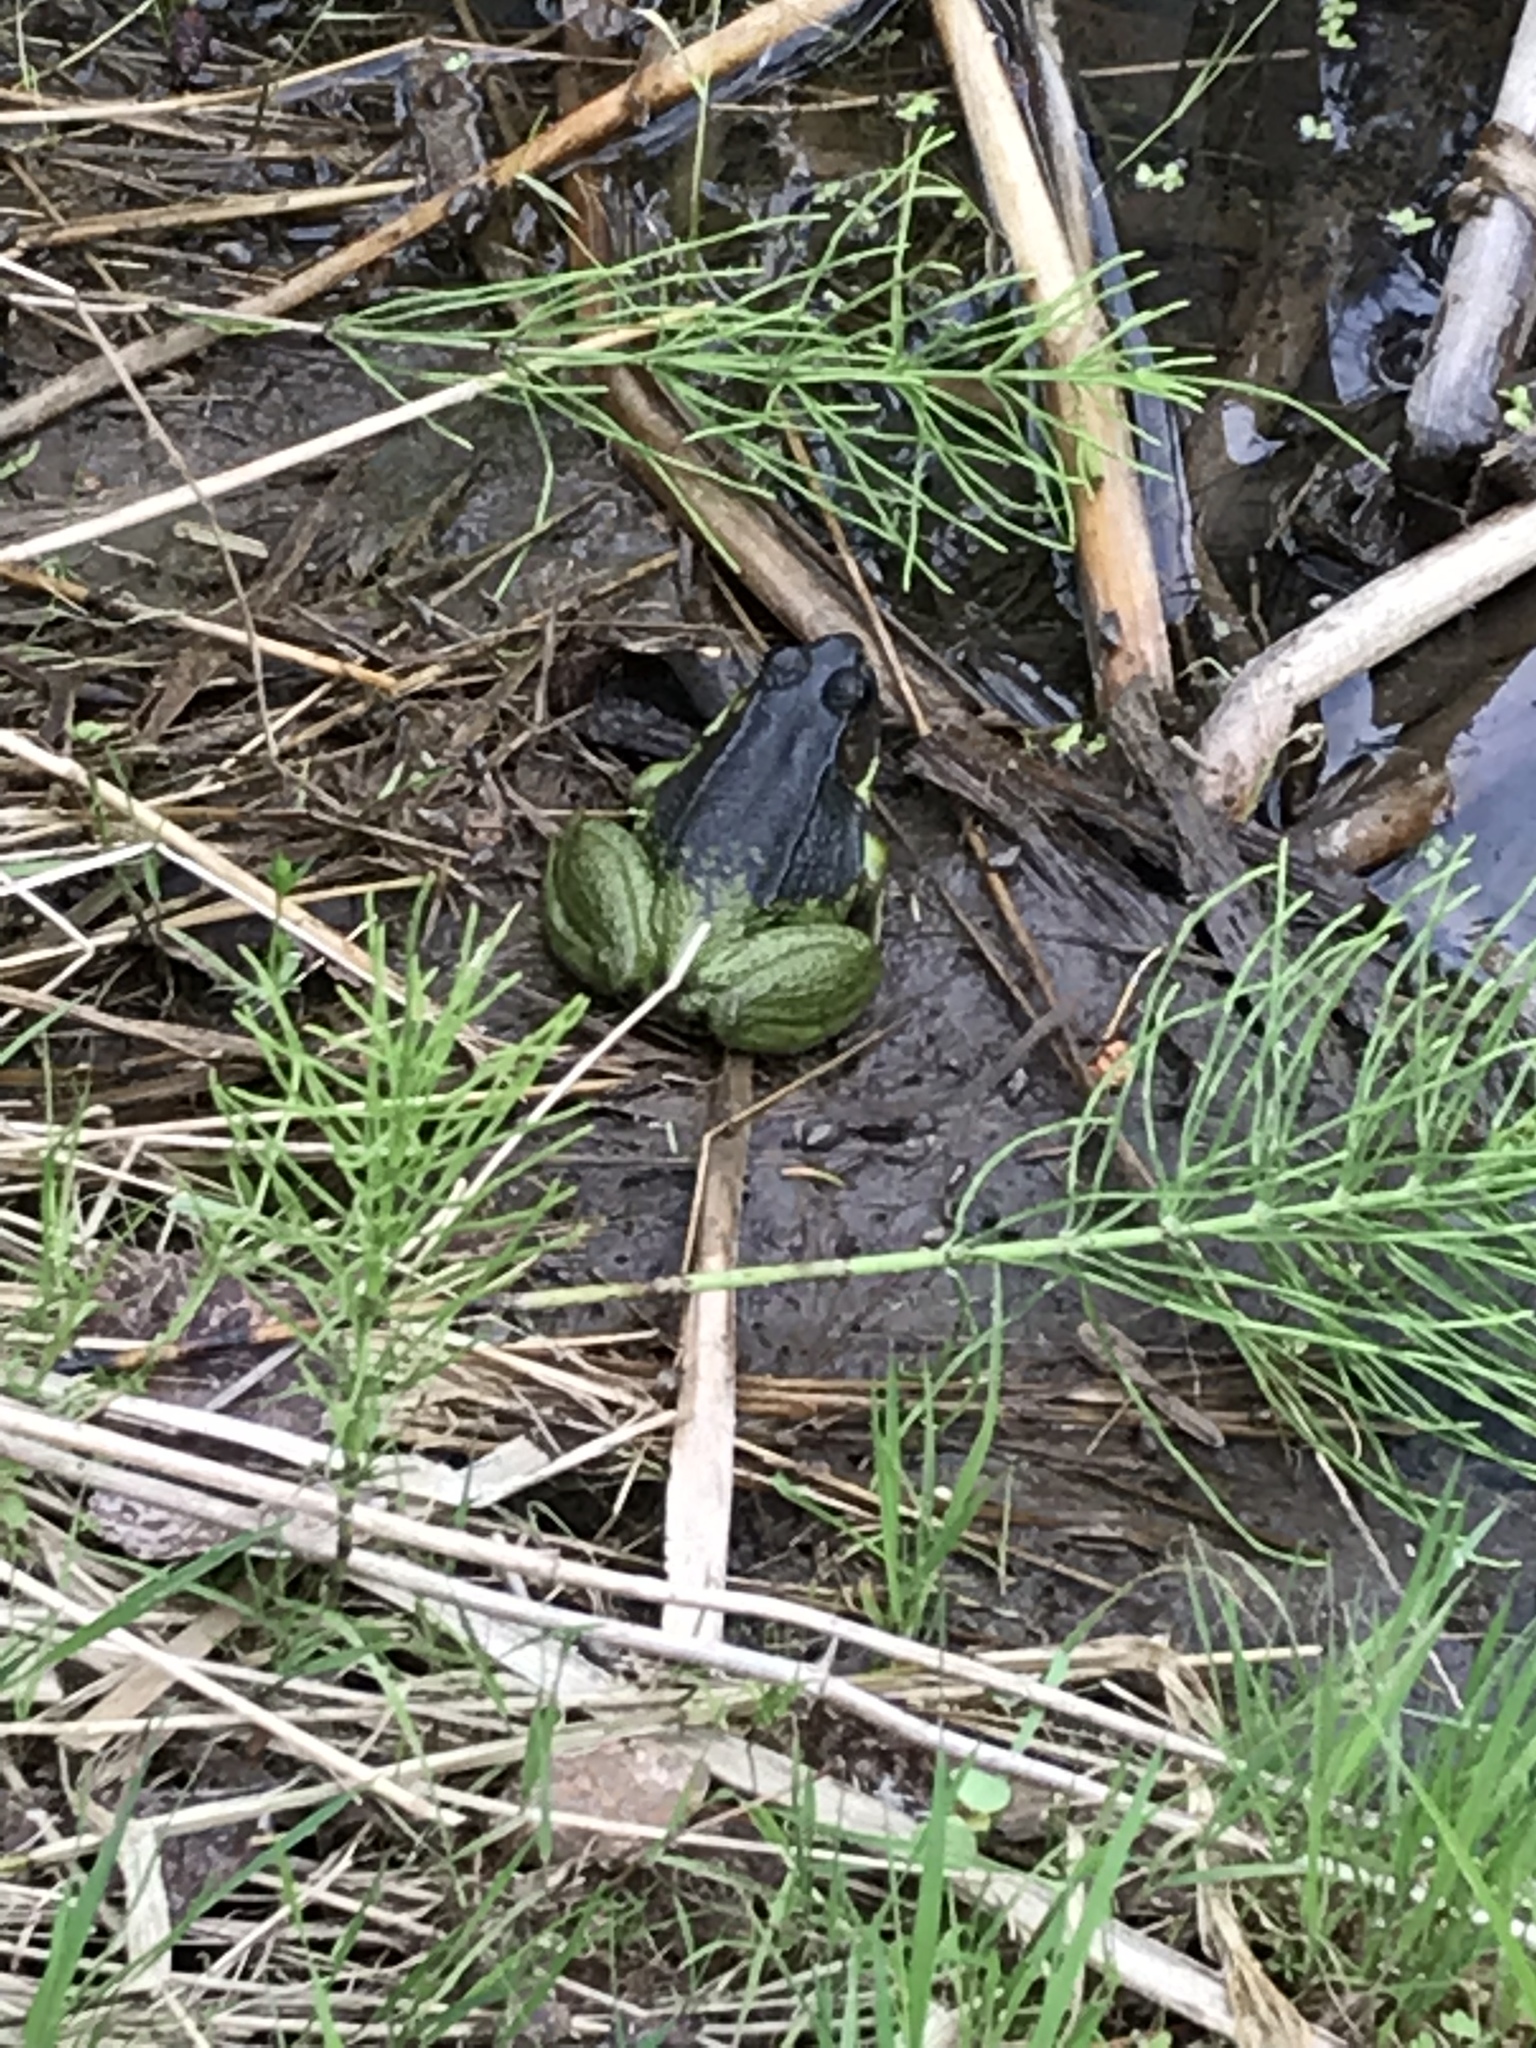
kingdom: Animalia
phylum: Chordata
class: Amphibia
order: Anura
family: Ranidae
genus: Lithobates
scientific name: Lithobates clamitans
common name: Green frog
